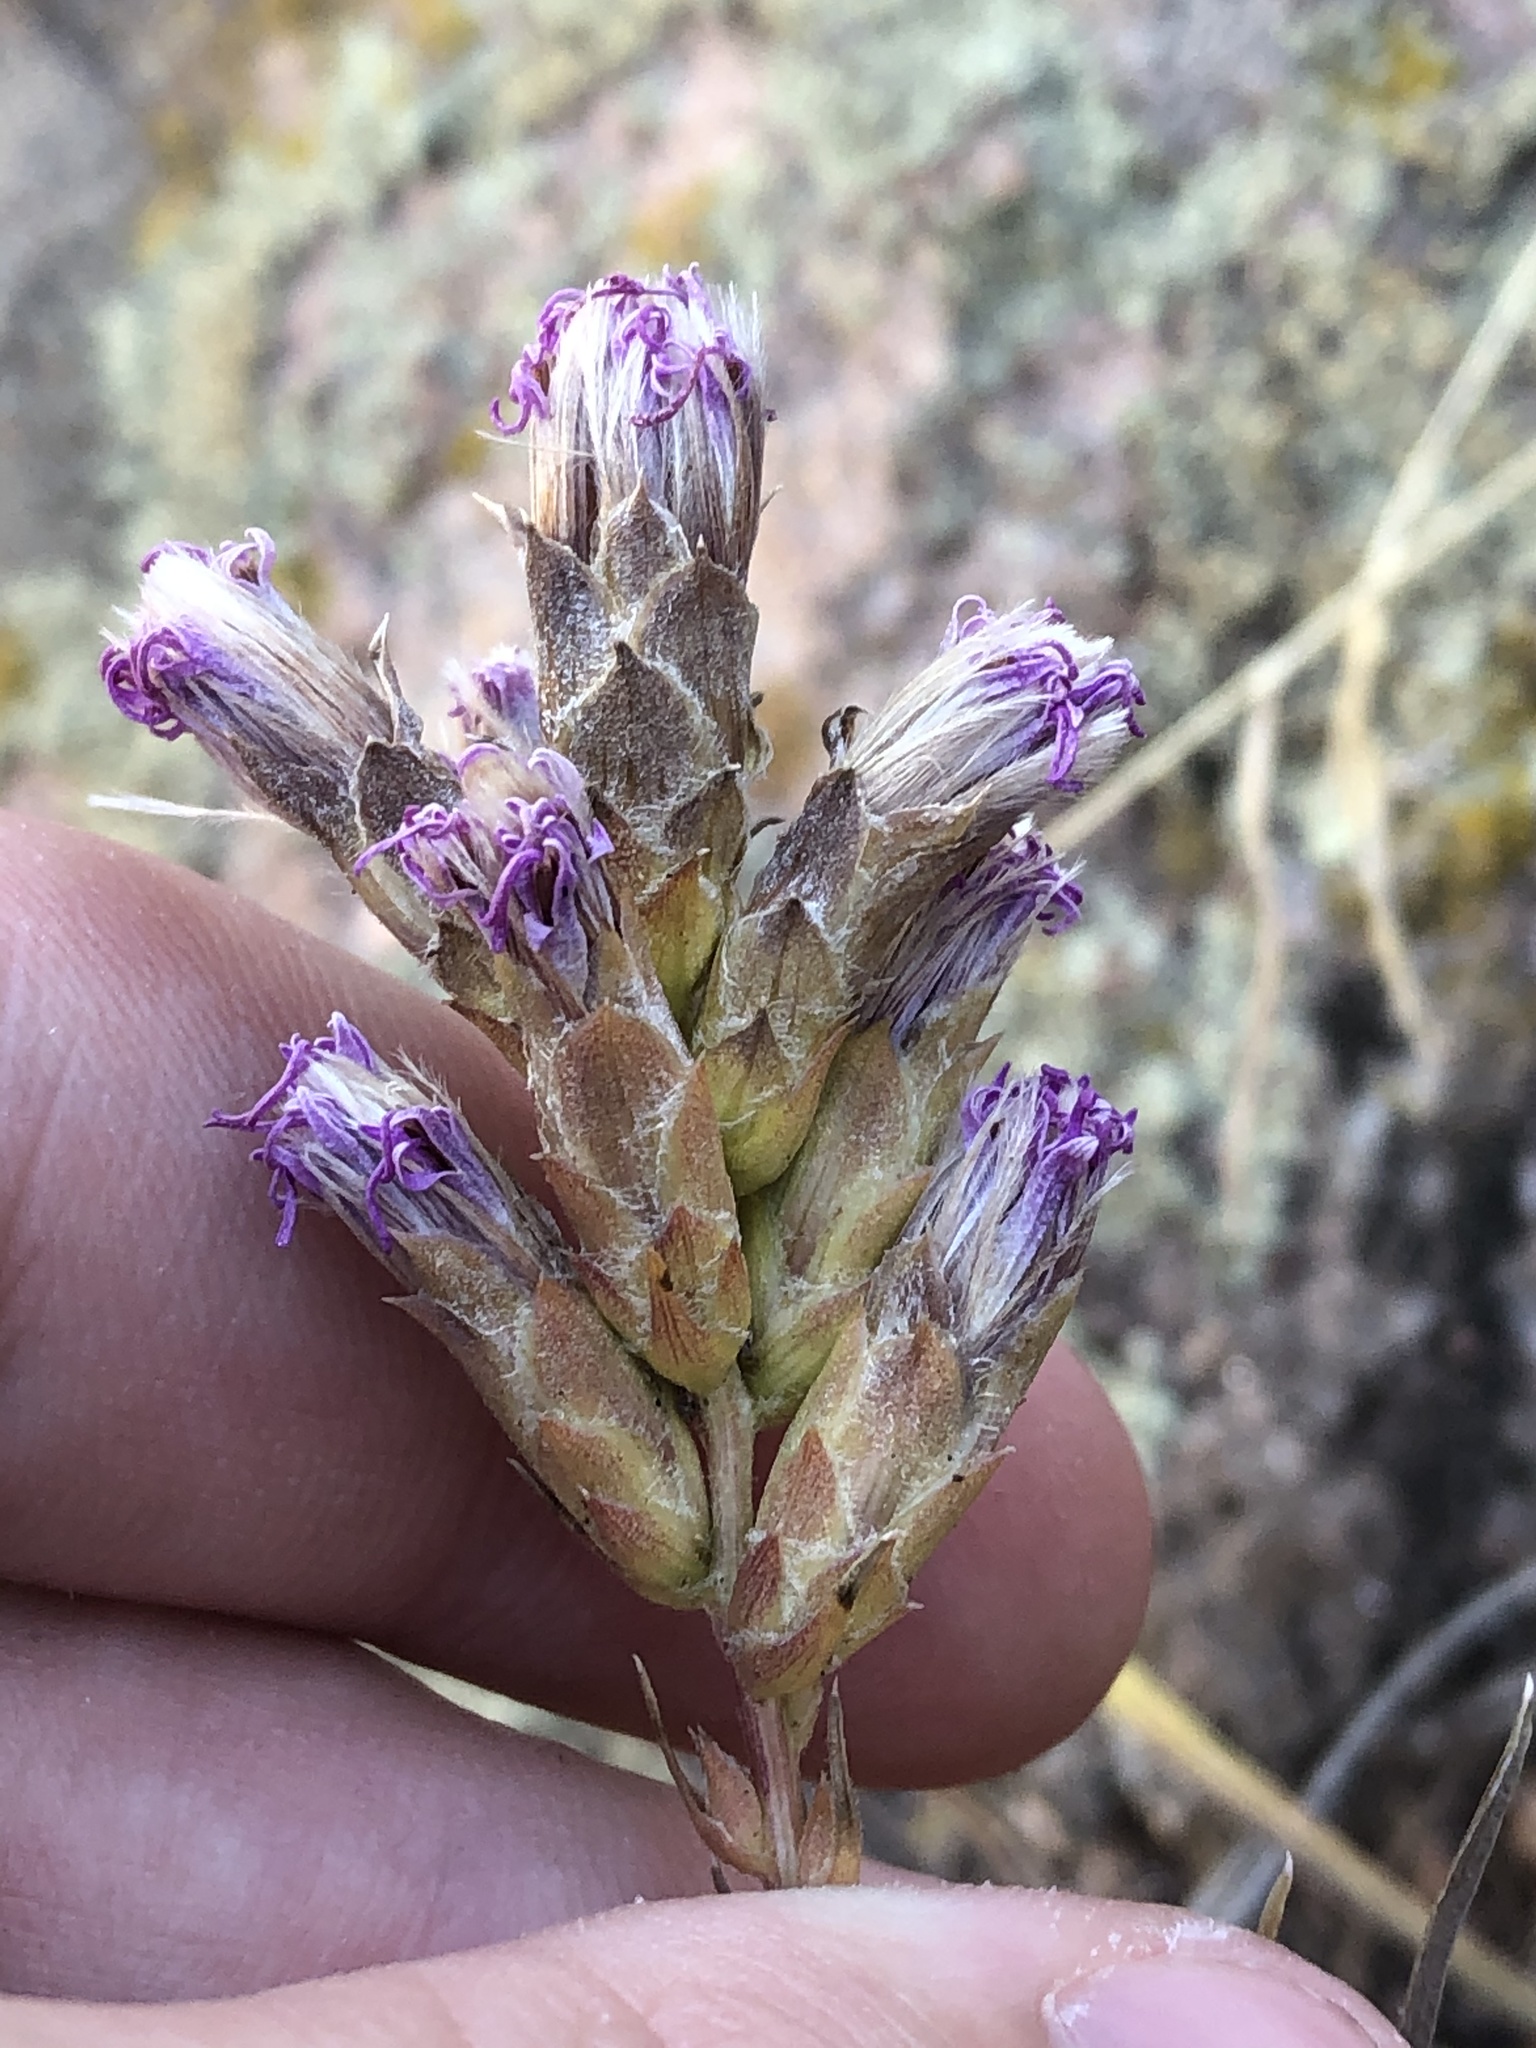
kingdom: Plantae
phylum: Tracheophyta
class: Magnoliopsida
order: Asterales
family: Asteraceae
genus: Liatris
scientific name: Liatris punctata
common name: Dotted gayfeather
